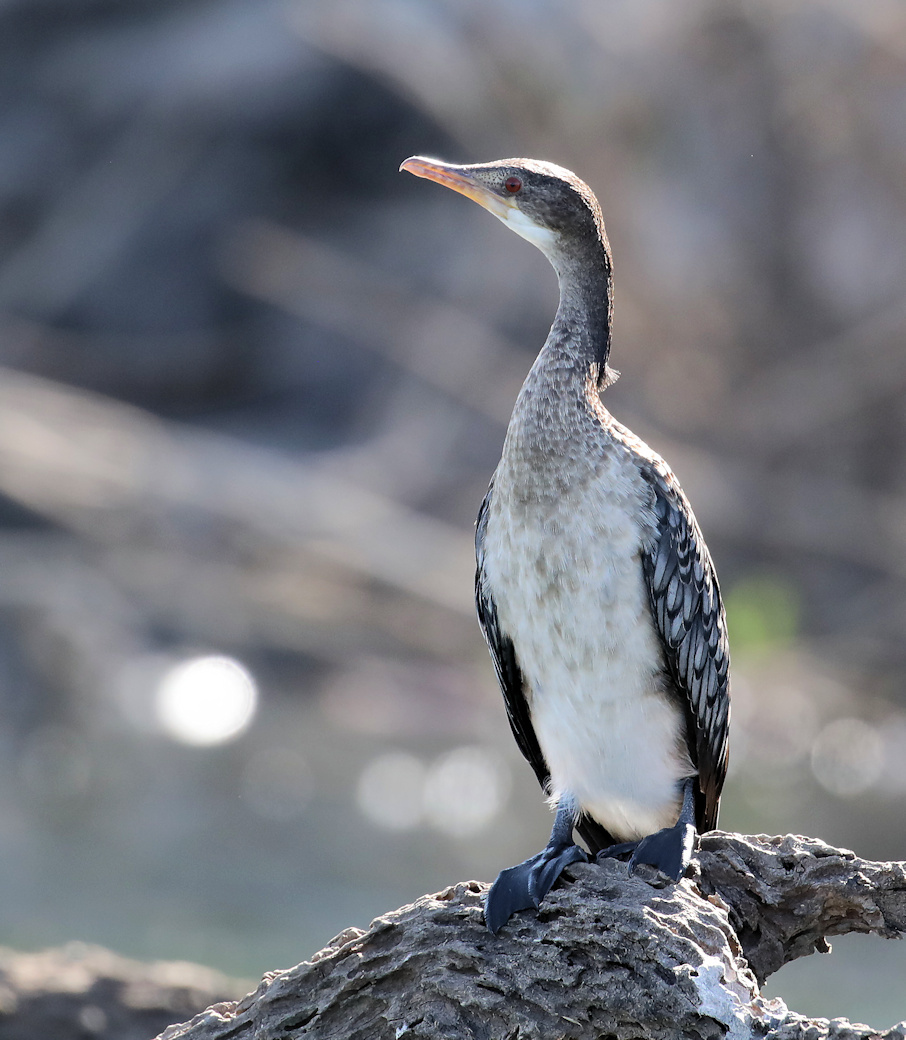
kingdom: Animalia
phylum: Chordata
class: Aves
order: Suliformes
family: Phalacrocoracidae
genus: Microcarbo
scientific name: Microcarbo africanus
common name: Long-tailed cormorant
